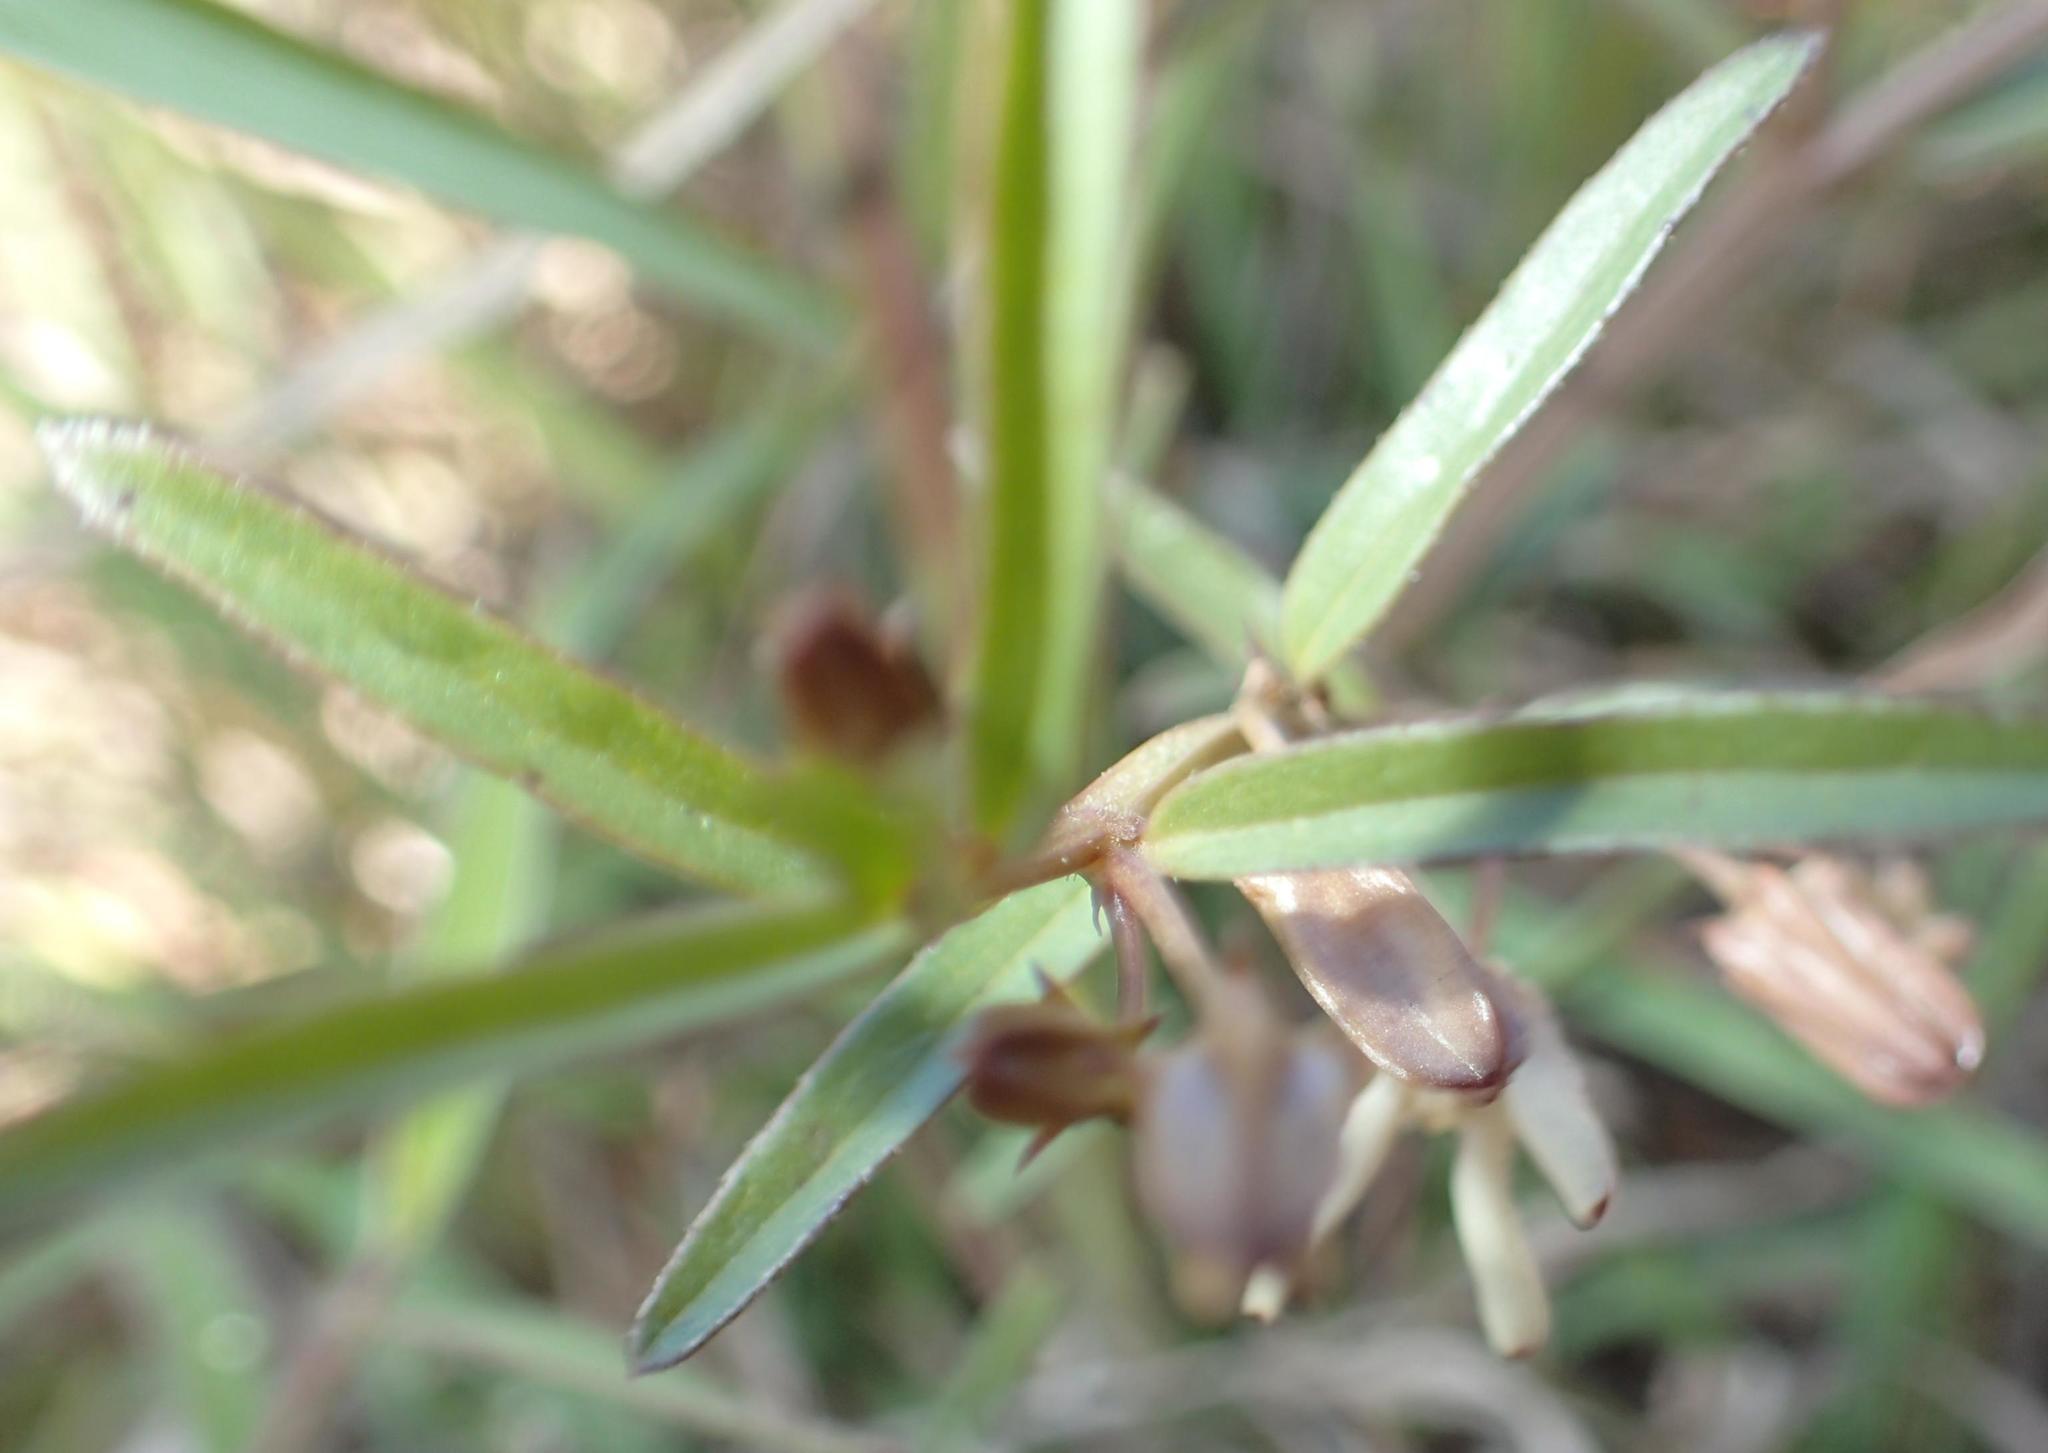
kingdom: Plantae
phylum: Tracheophyta
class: Magnoliopsida
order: Gentianales
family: Apocynaceae
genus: Ceropegia
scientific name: Ceropegia franksiae
